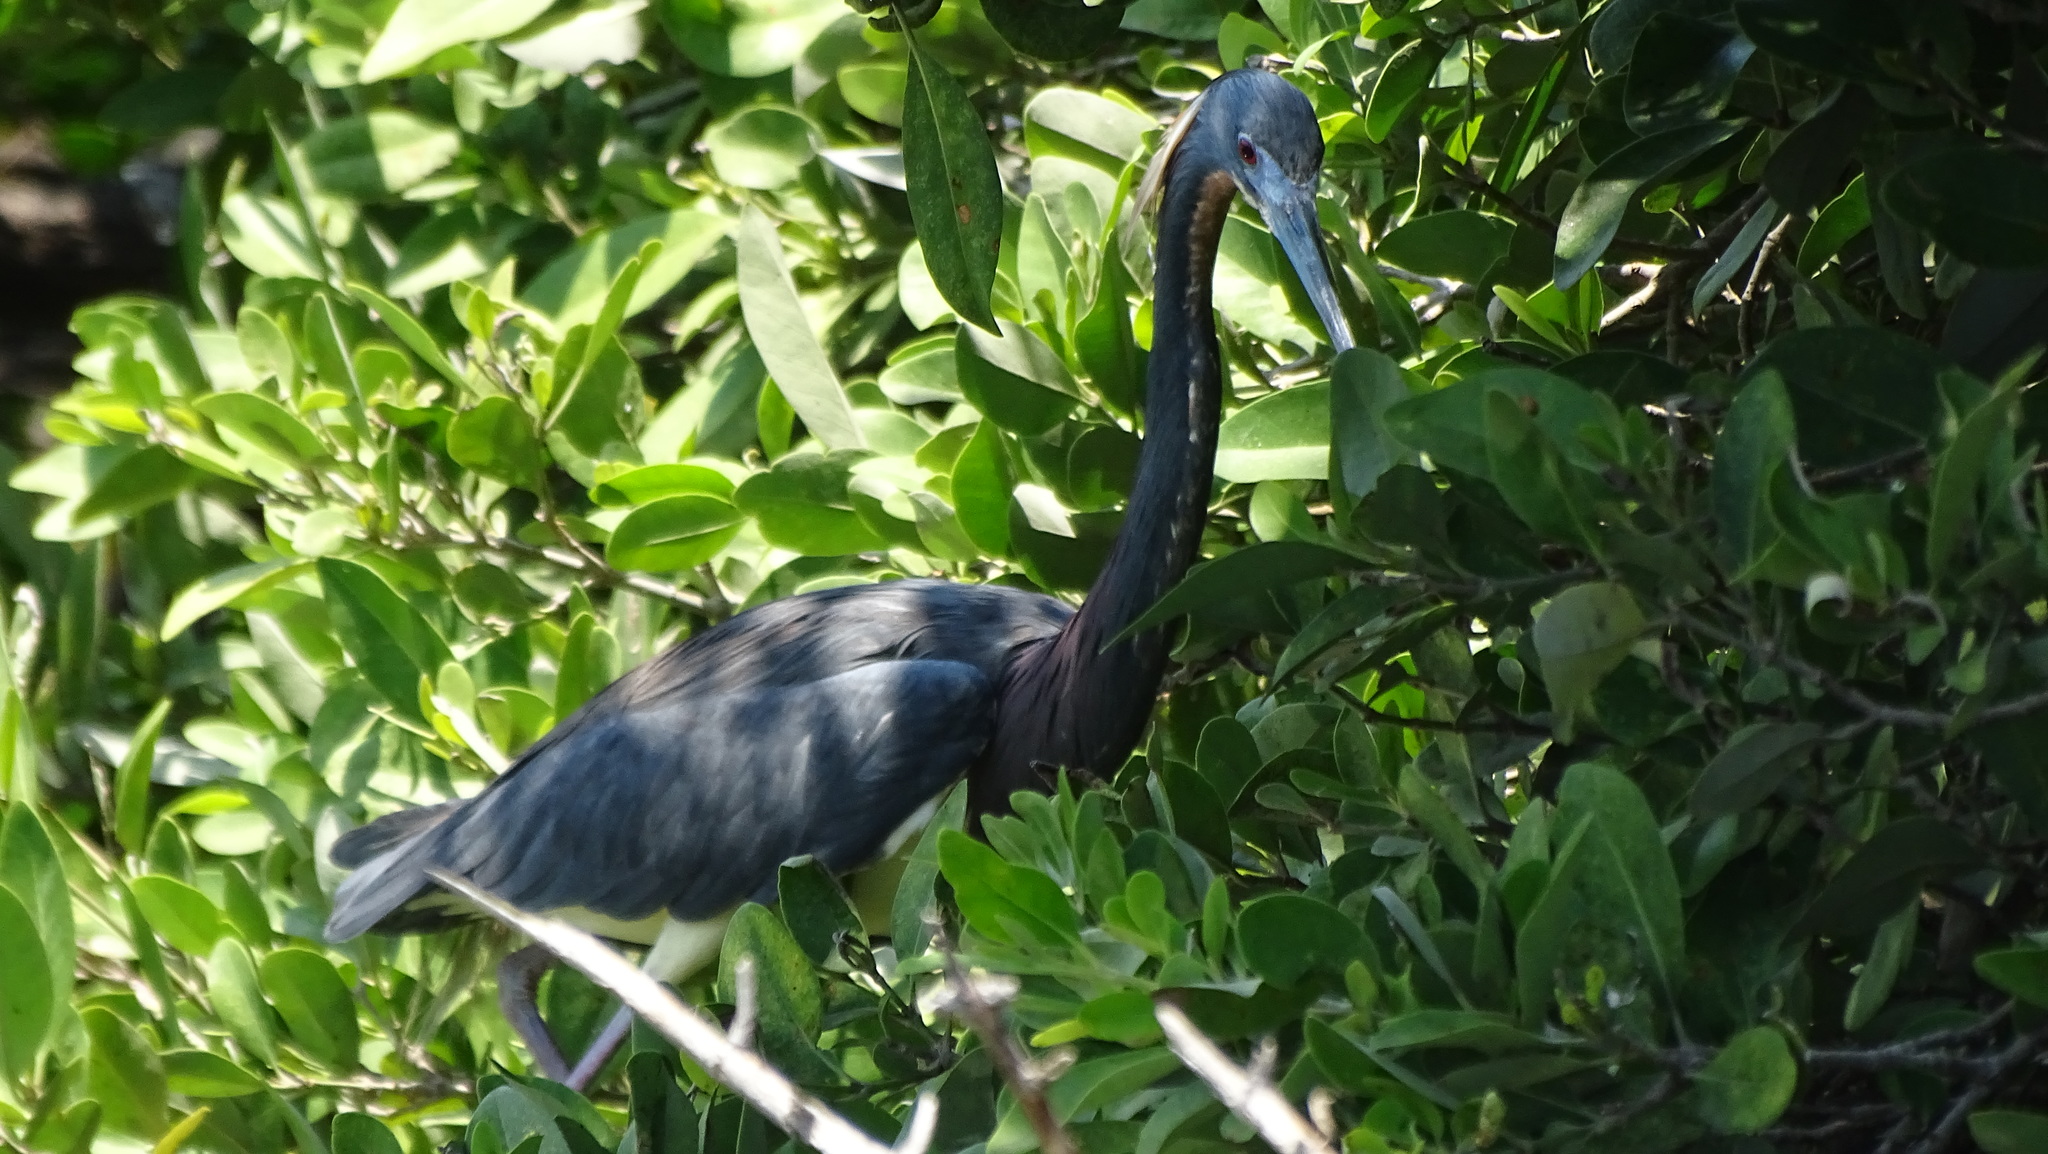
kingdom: Animalia
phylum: Chordata
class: Aves
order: Pelecaniformes
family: Ardeidae
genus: Egretta
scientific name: Egretta tricolor
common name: Tricolored heron
